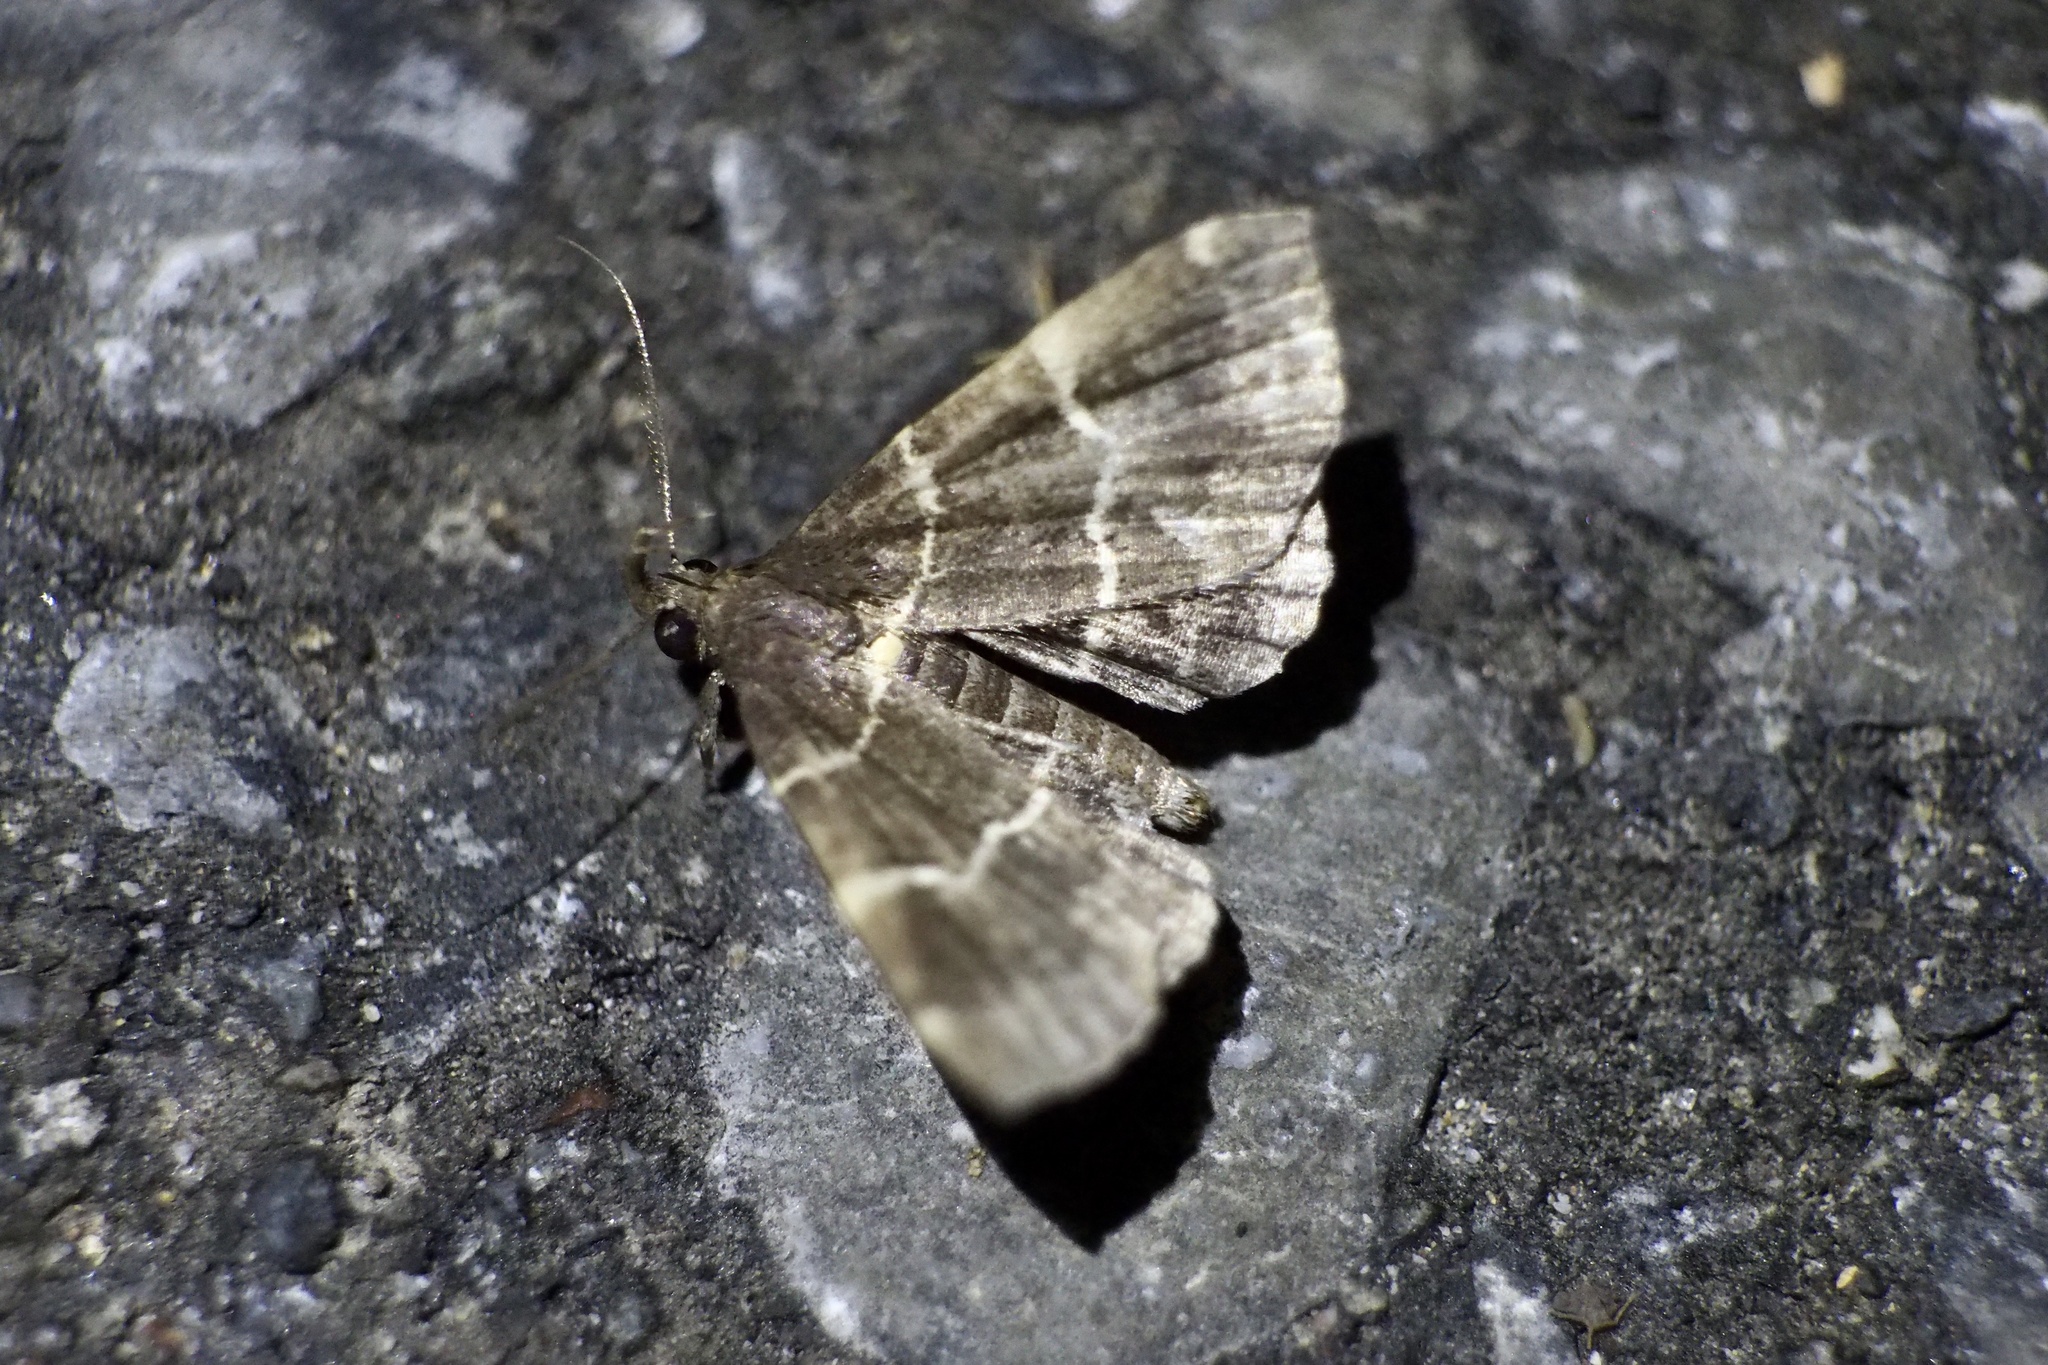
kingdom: Animalia
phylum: Arthropoda
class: Insecta
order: Lepidoptera
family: Erebidae
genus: Bertula
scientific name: Bertula
